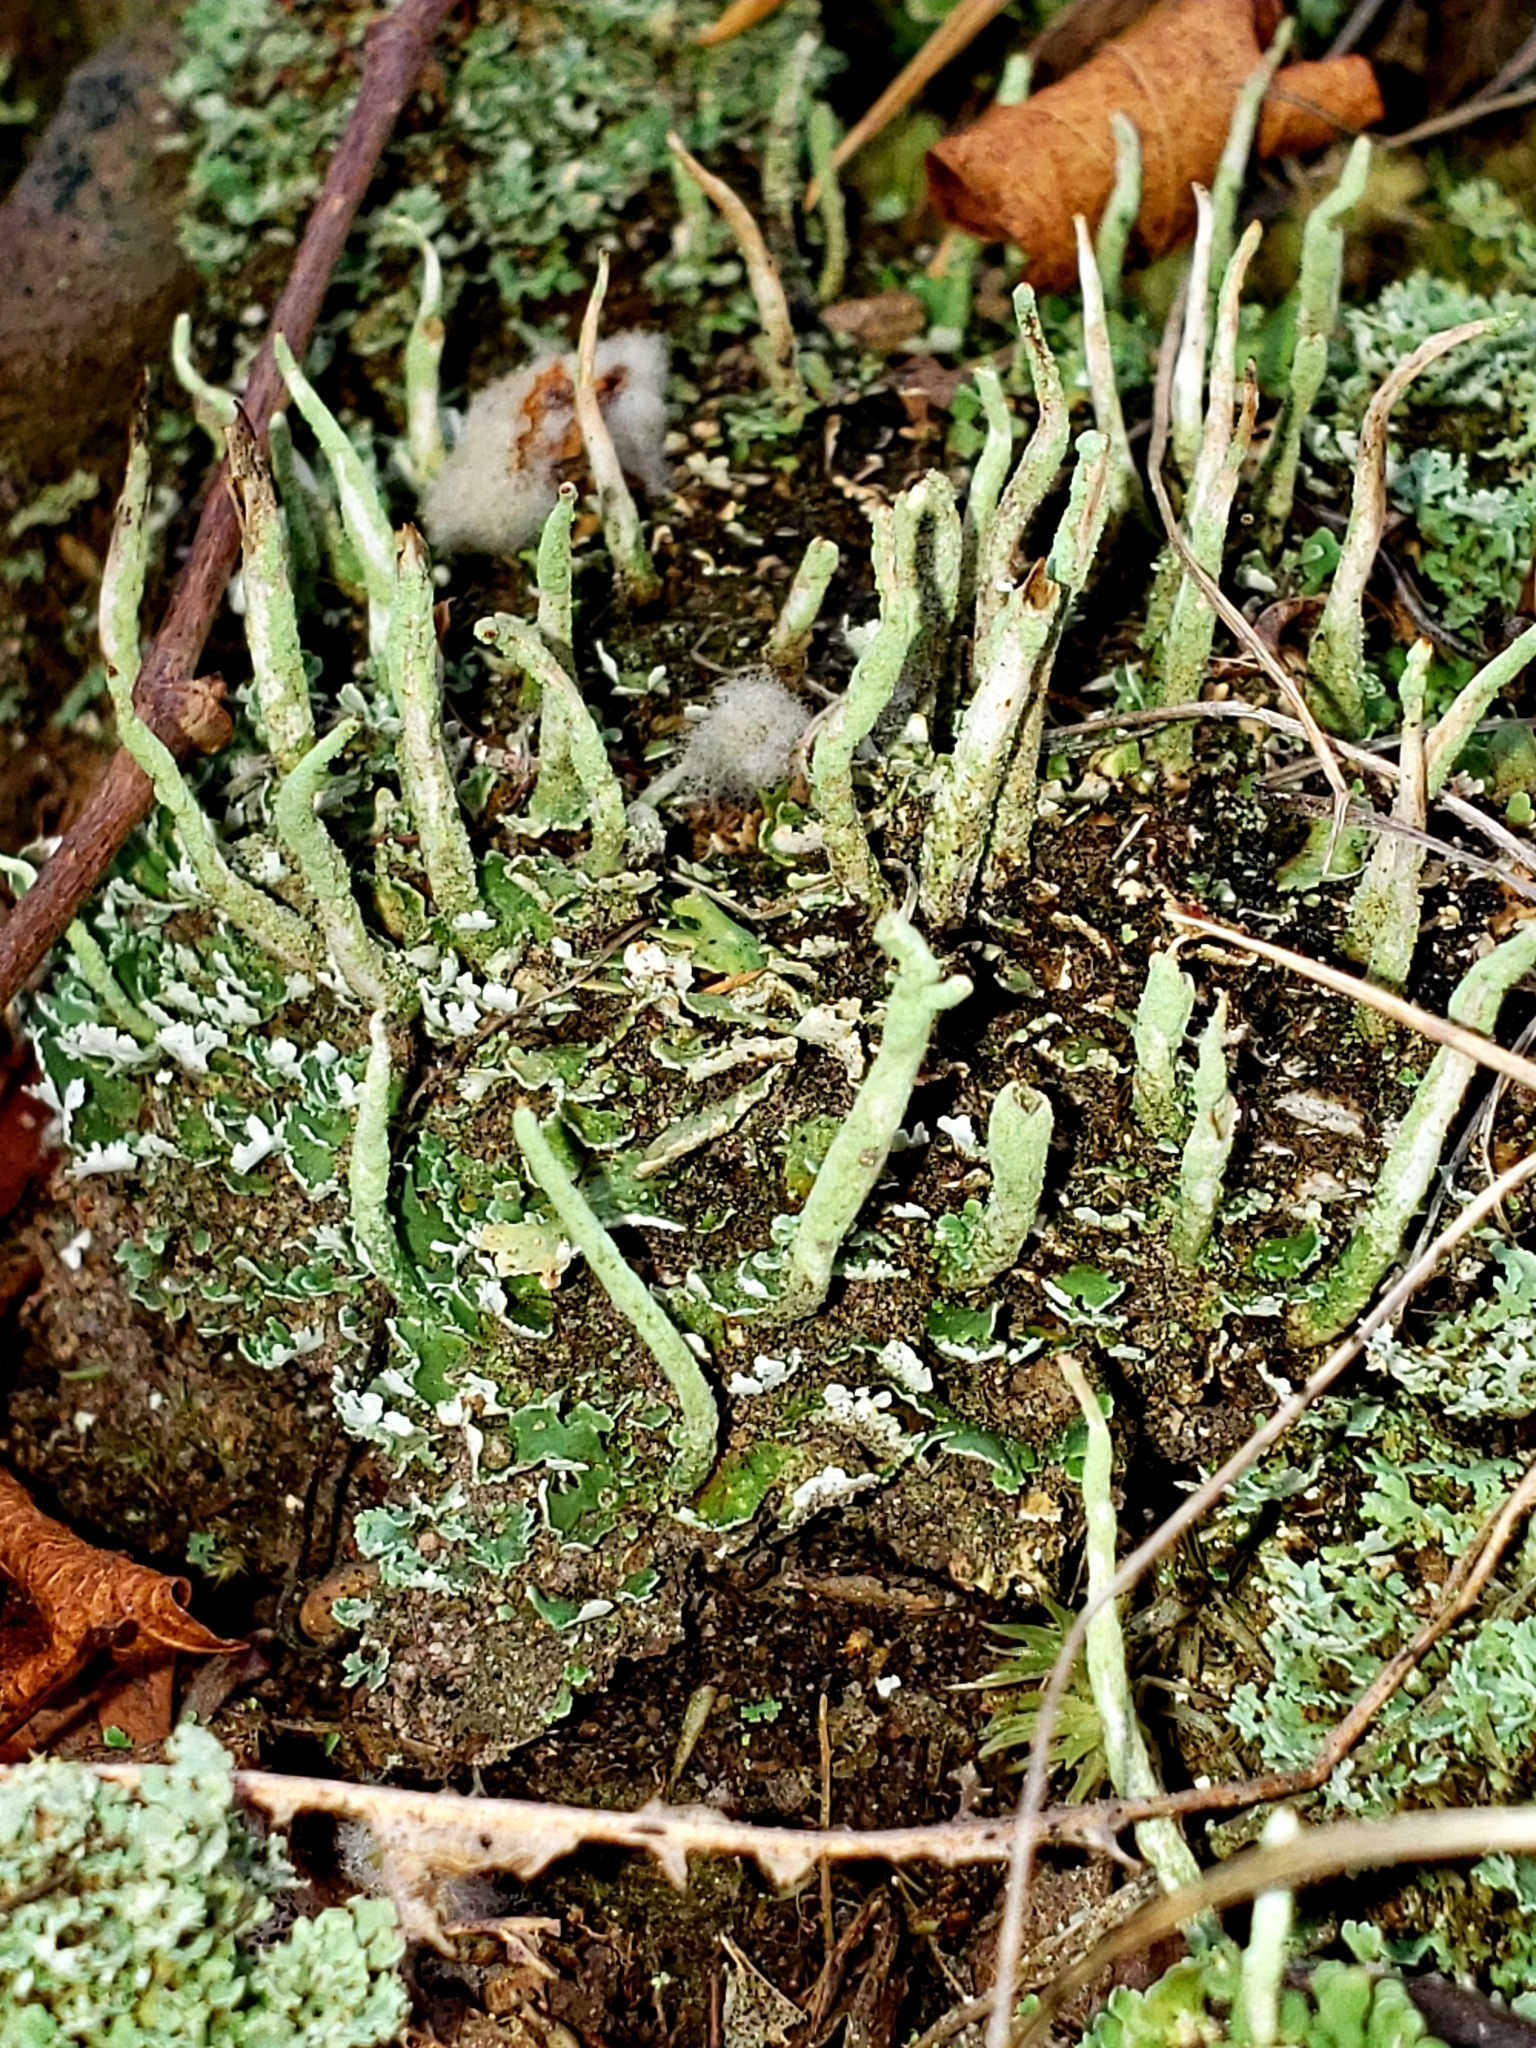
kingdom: Fungi
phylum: Ascomycota
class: Lecanoromycetes
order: Lecanorales
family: Cladoniaceae
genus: Cladonia
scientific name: Cladonia coniocraea
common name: Common powderhorn
